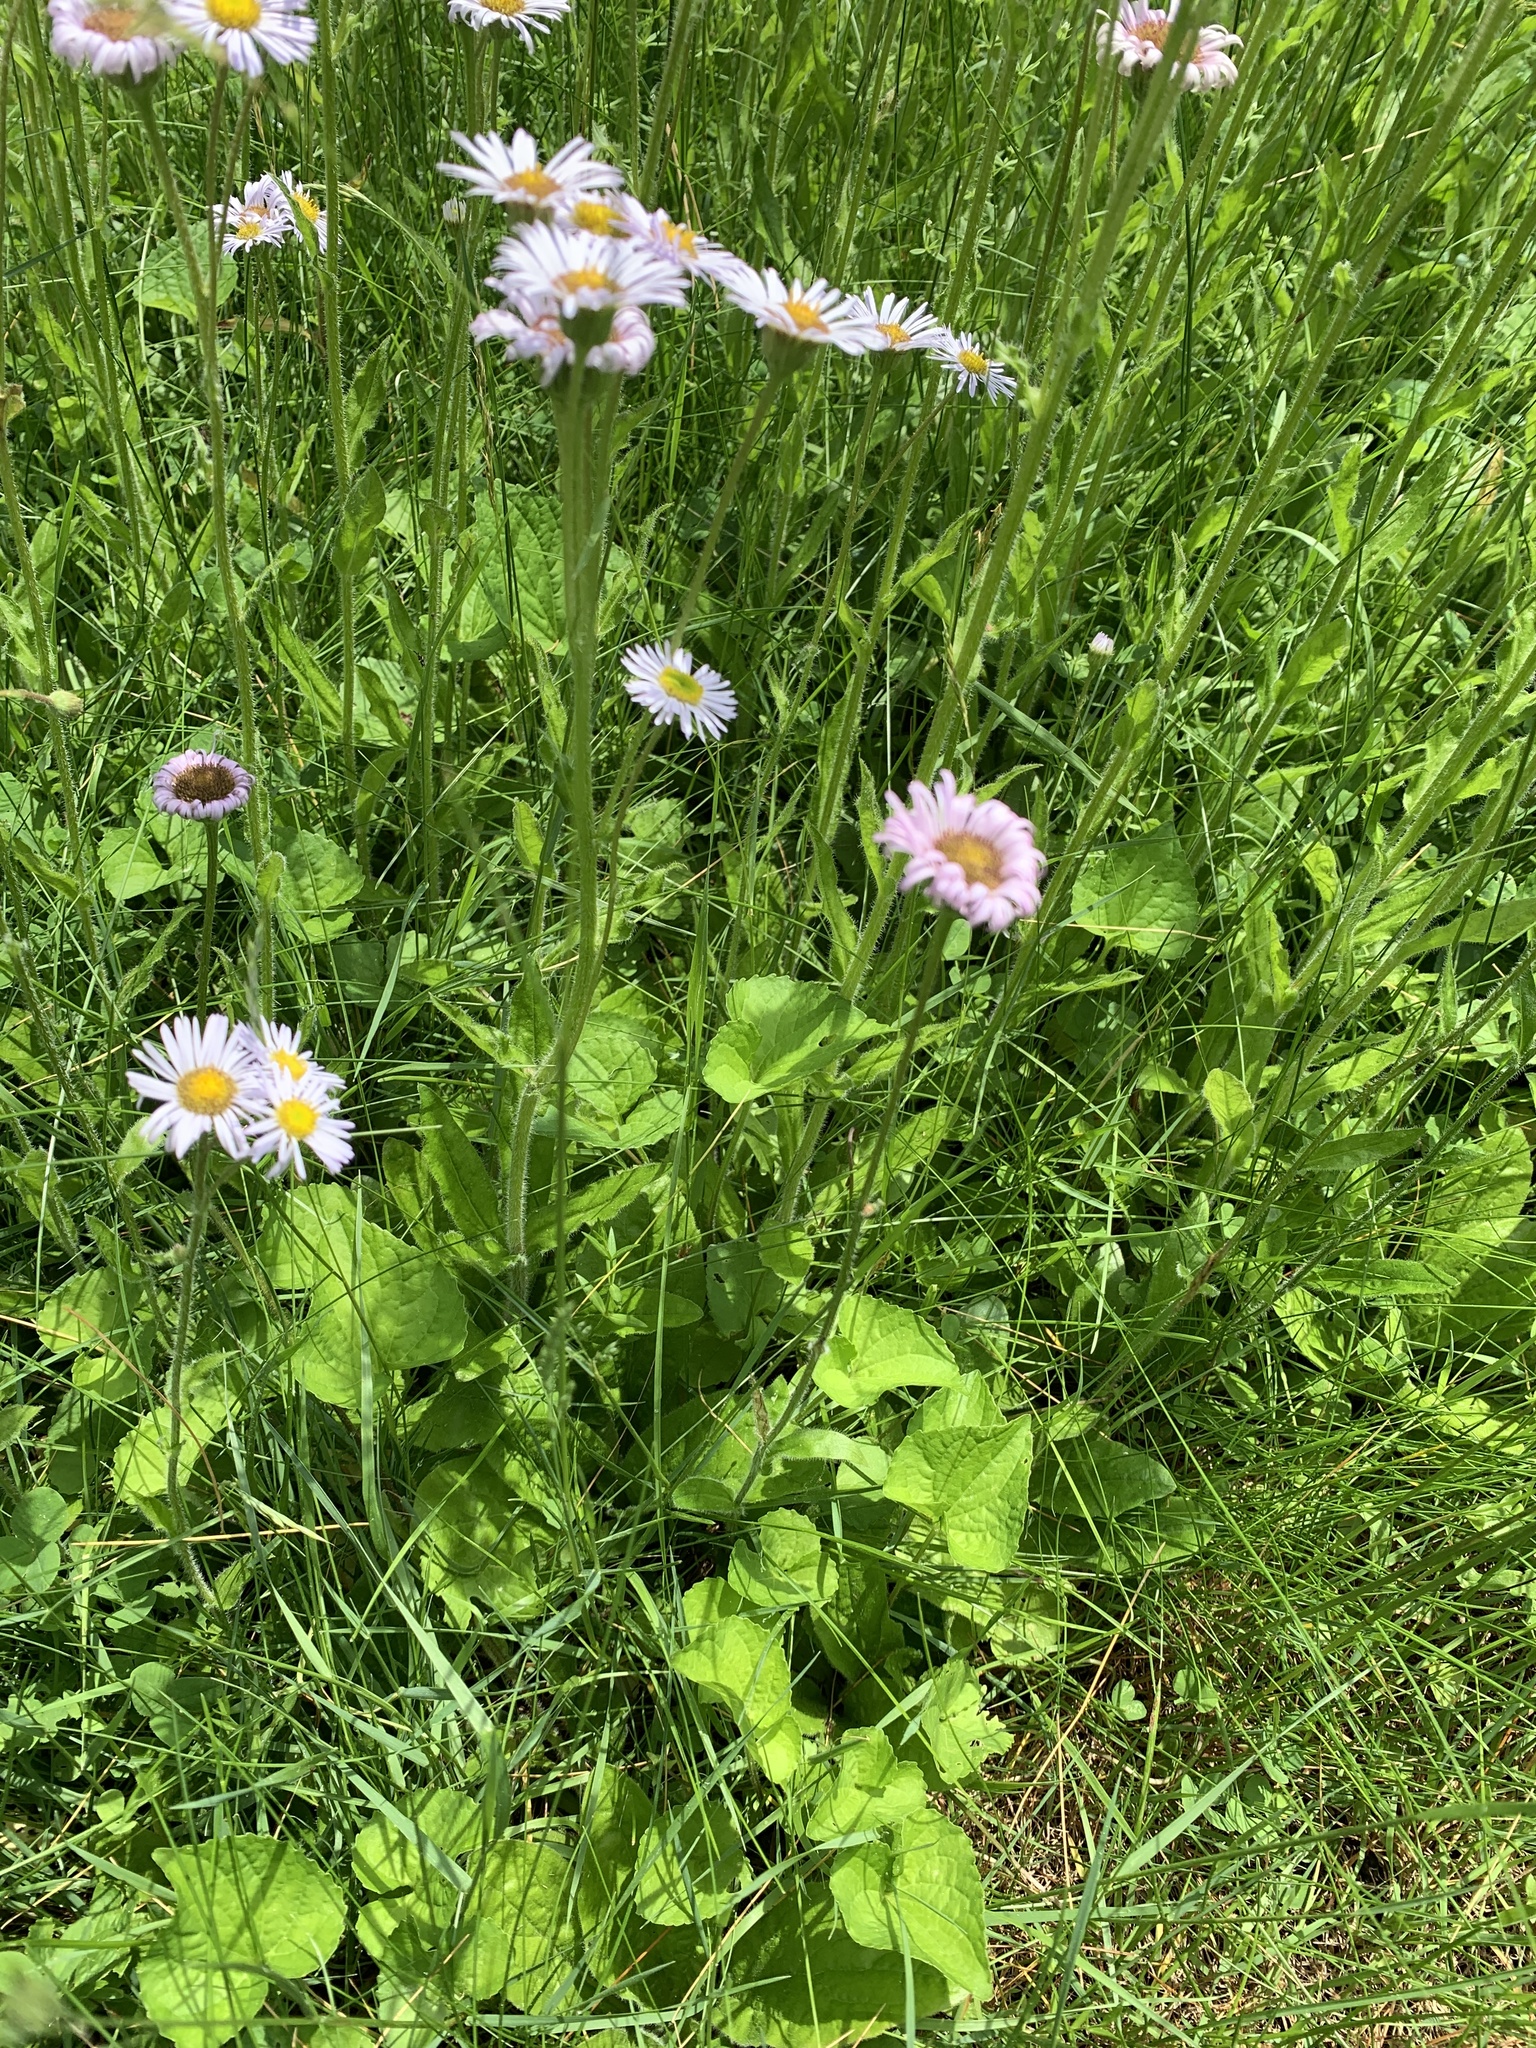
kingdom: Plantae
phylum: Tracheophyta
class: Magnoliopsida
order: Asterales
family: Asteraceae
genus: Erigeron
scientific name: Erigeron pulchellus
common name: Hairy fleabane
